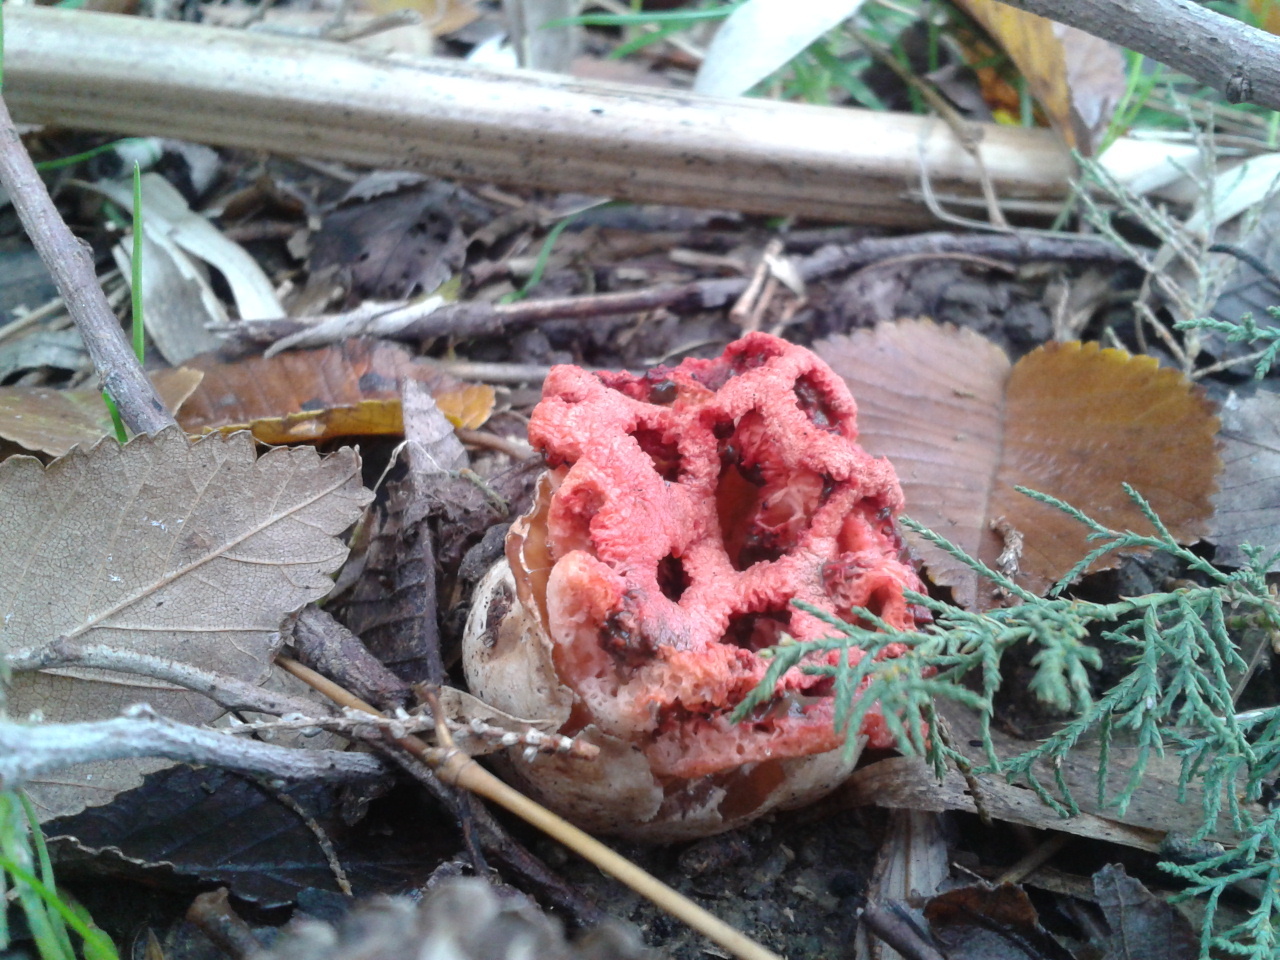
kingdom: Fungi
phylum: Basidiomycota
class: Agaricomycetes
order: Phallales
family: Phallaceae
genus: Clathrus
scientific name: Clathrus ruber
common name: Red cage
